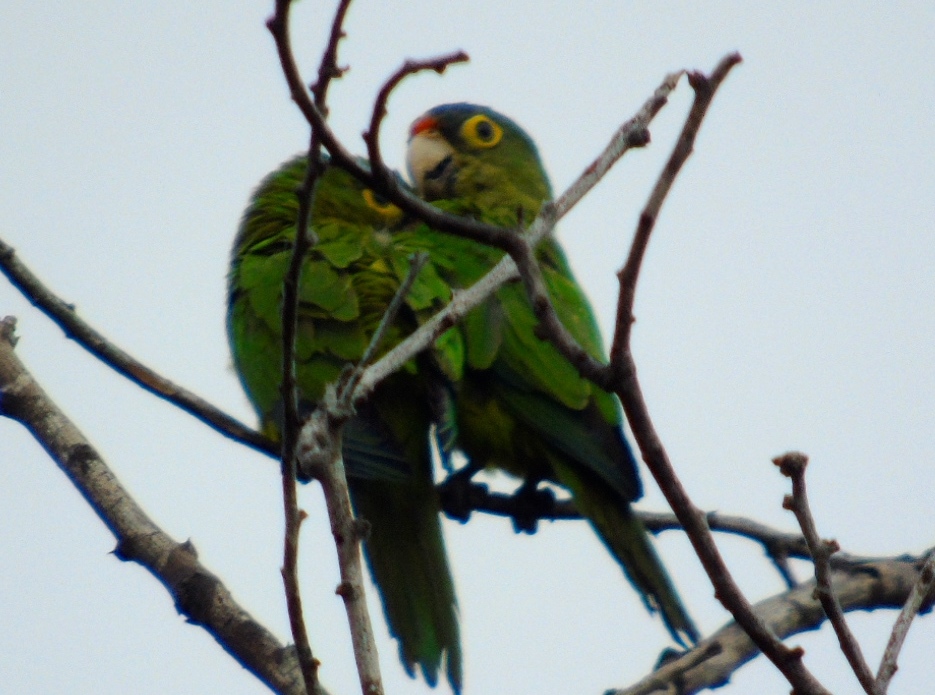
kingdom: Animalia
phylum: Chordata
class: Aves
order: Psittaciformes
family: Psittacidae
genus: Aratinga
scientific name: Aratinga canicularis
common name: Orange-fronted parakeet
